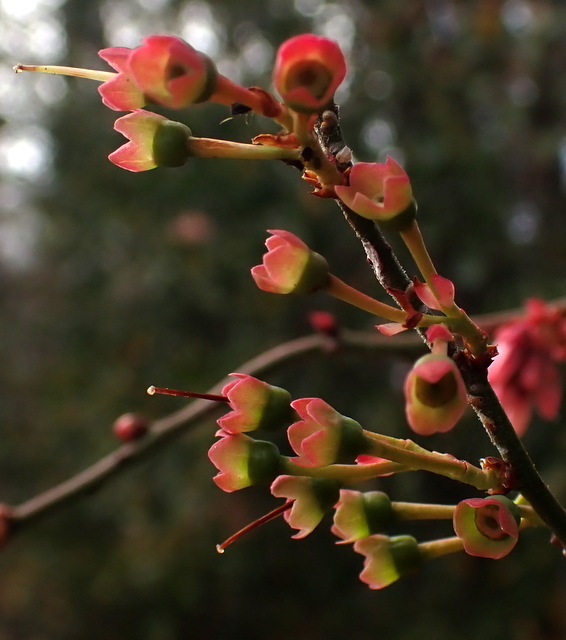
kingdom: Plantae
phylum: Tracheophyta
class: Magnoliopsida
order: Ericales
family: Ericaceae
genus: Vaccinium
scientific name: Vaccinium corymbosum
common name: Blueberry
